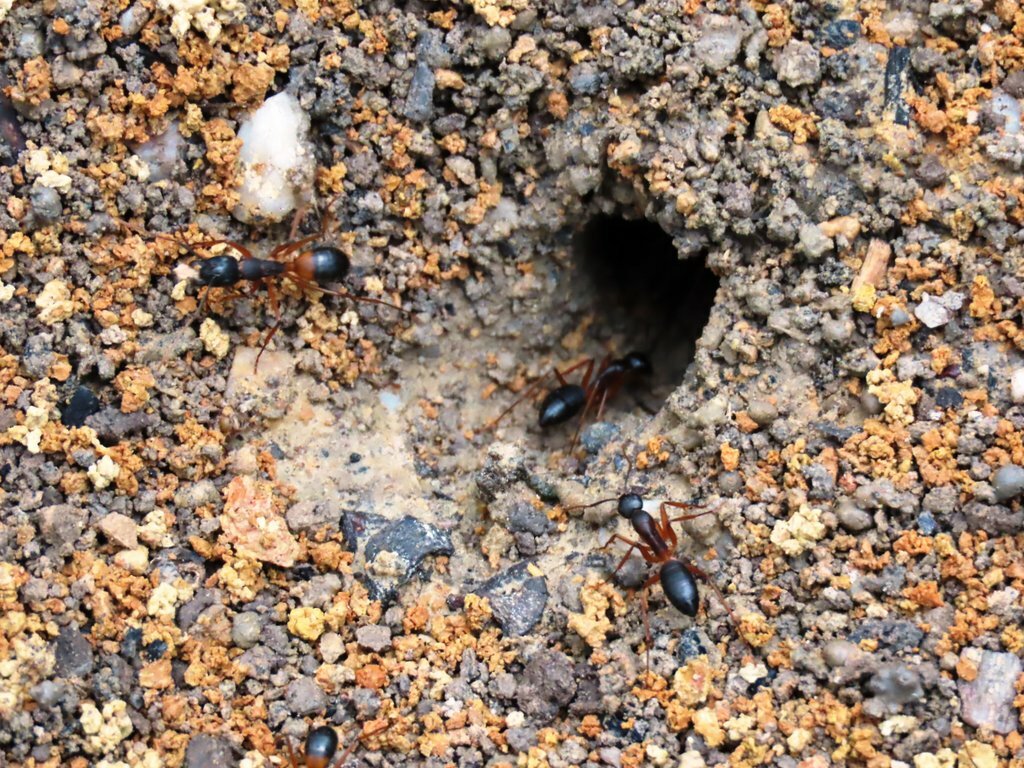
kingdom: Animalia
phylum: Arthropoda
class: Insecta
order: Hymenoptera
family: Formicidae
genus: Camponotus
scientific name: Camponotus consobrinus
